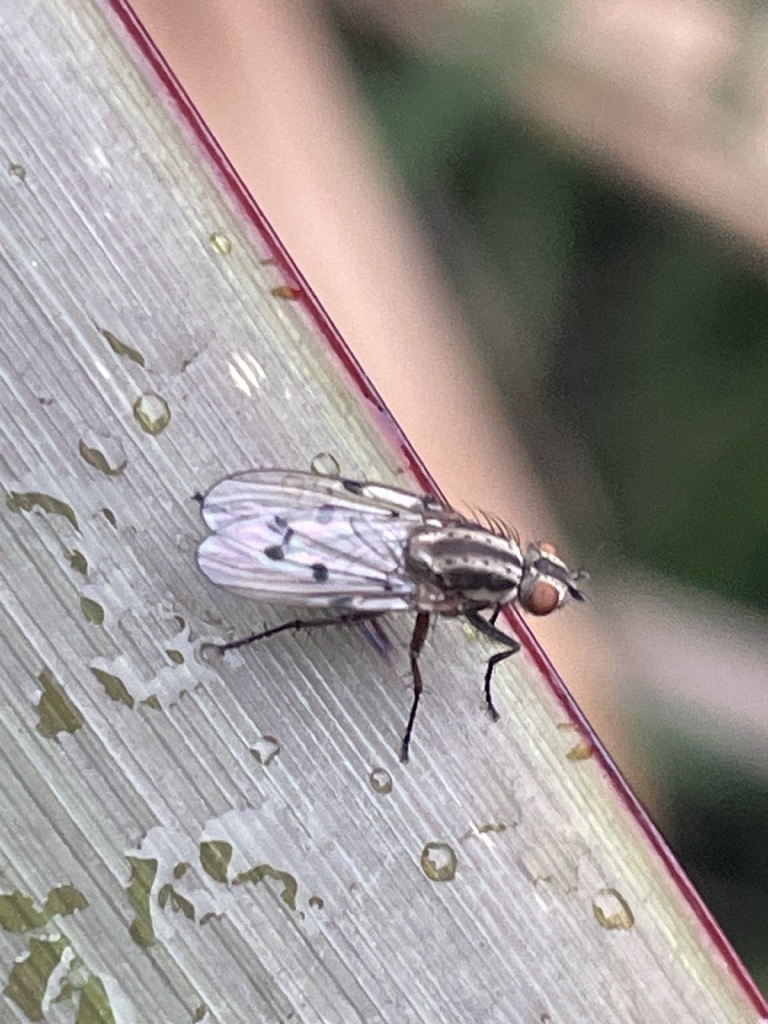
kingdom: Animalia
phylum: Arthropoda
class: Insecta
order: Diptera
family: Anthomyiidae
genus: Anthomyia
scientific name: Anthomyia punctipennis
